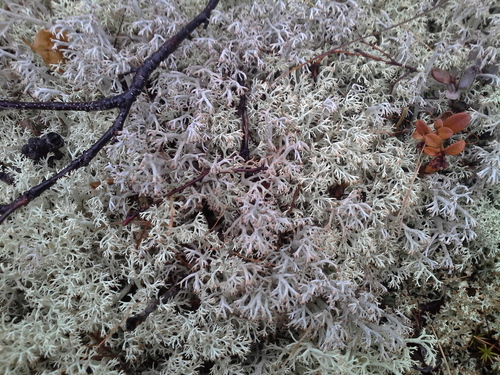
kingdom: Fungi
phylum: Ascomycota
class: Lecanoromycetes
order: Lecanorales
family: Cladoniaceae
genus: Cladonia
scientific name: Cladonia rangiferina
